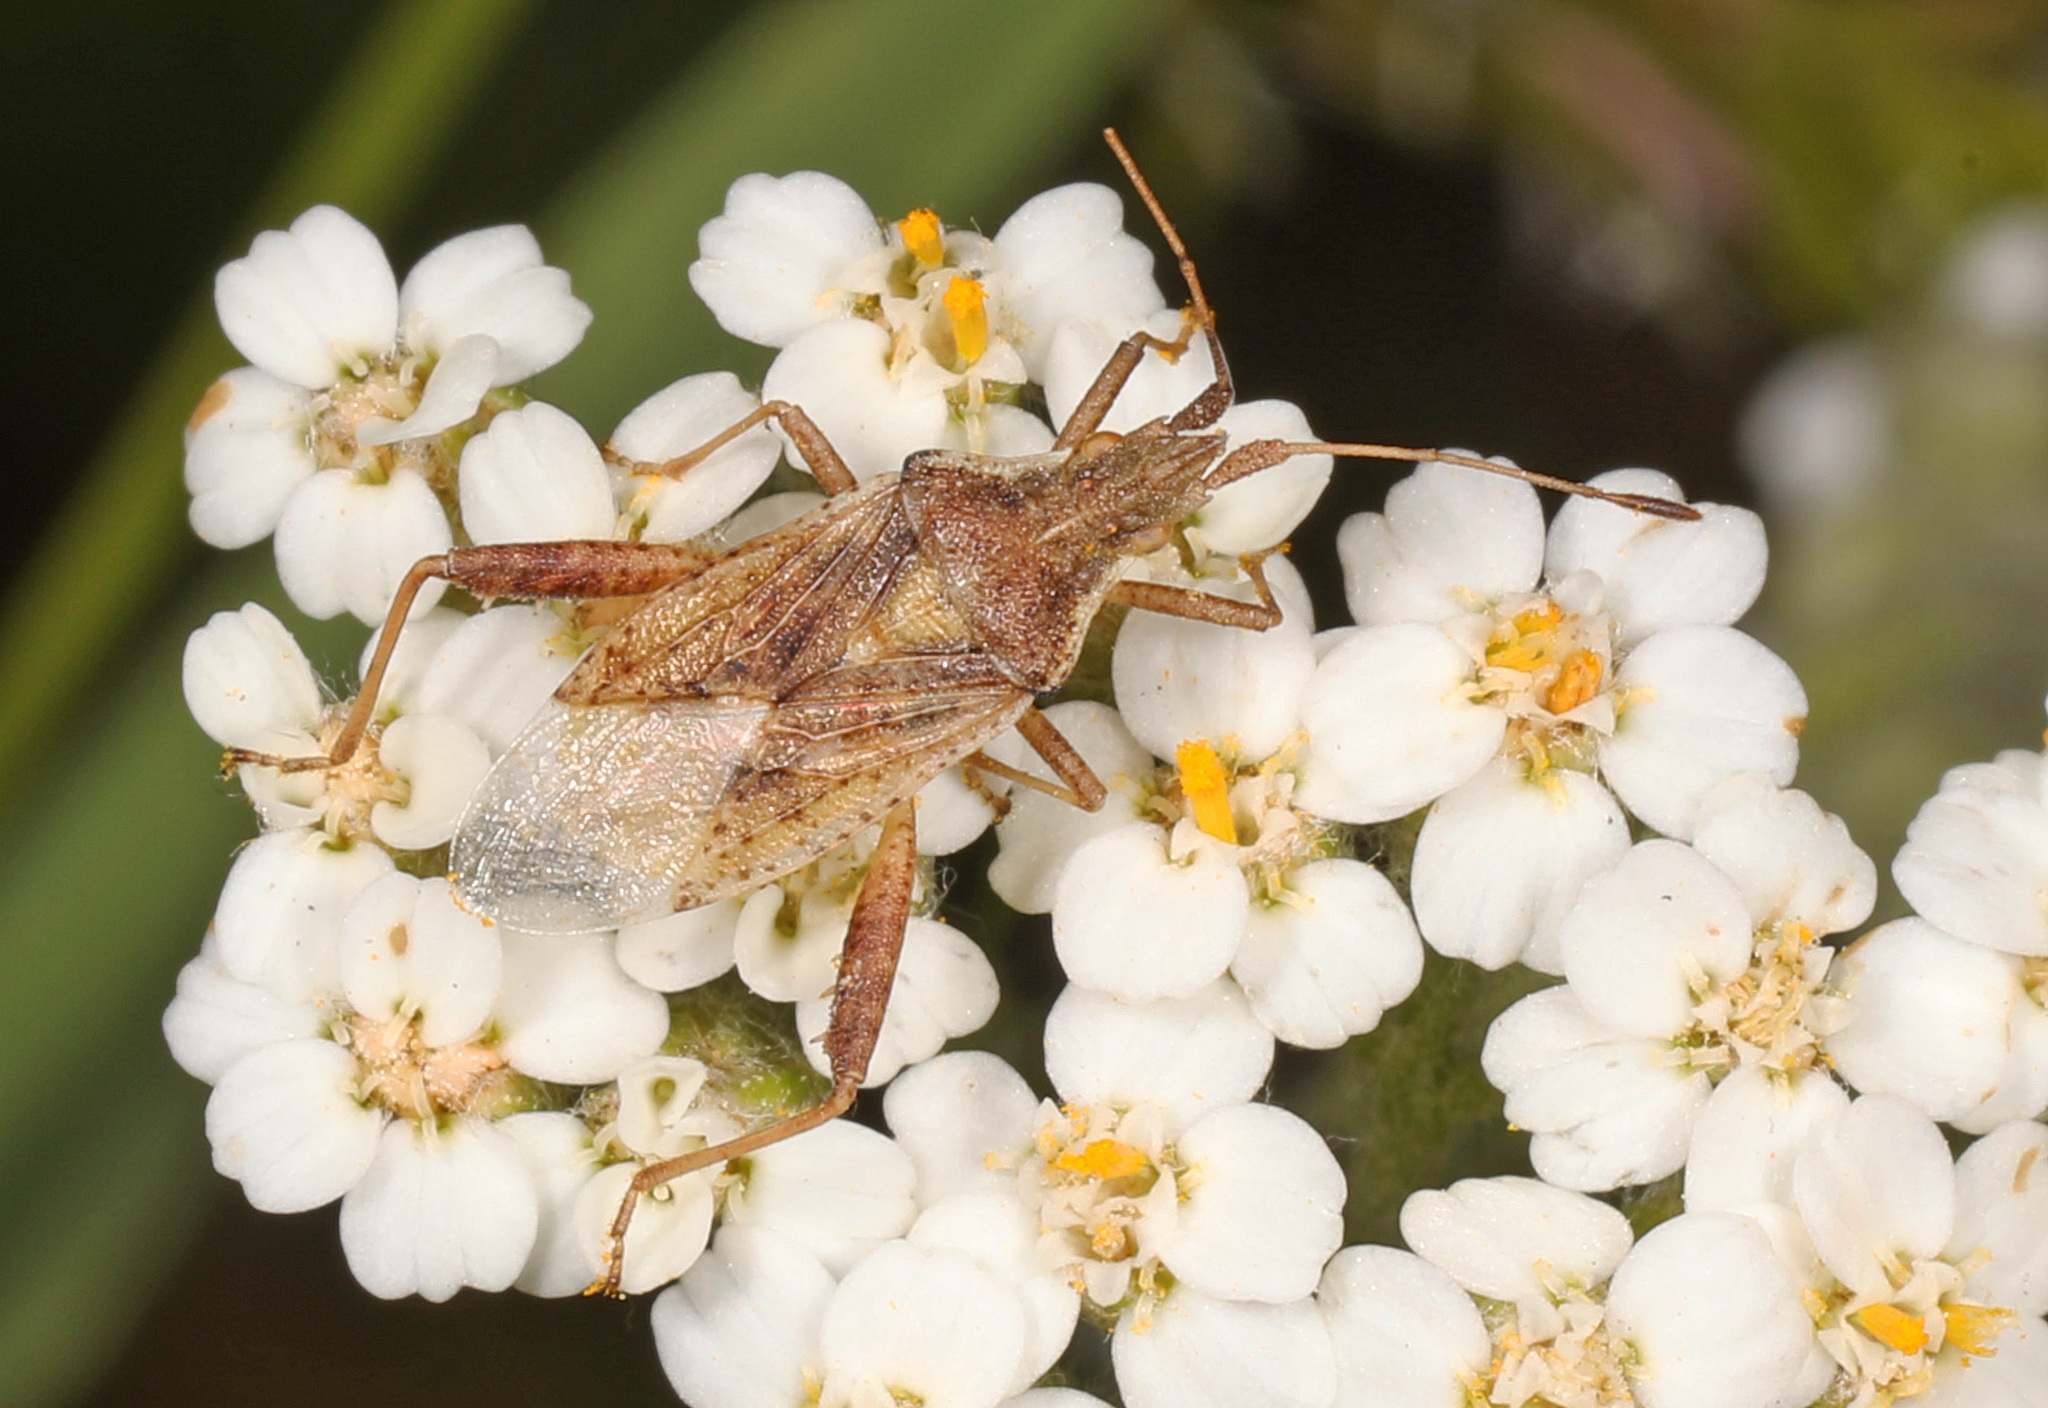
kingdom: Animalia
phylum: Arthropoda
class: Insecta
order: Hemiptera
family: Rhopalidae
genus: Harmostes
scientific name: Harmostes reflexulus
